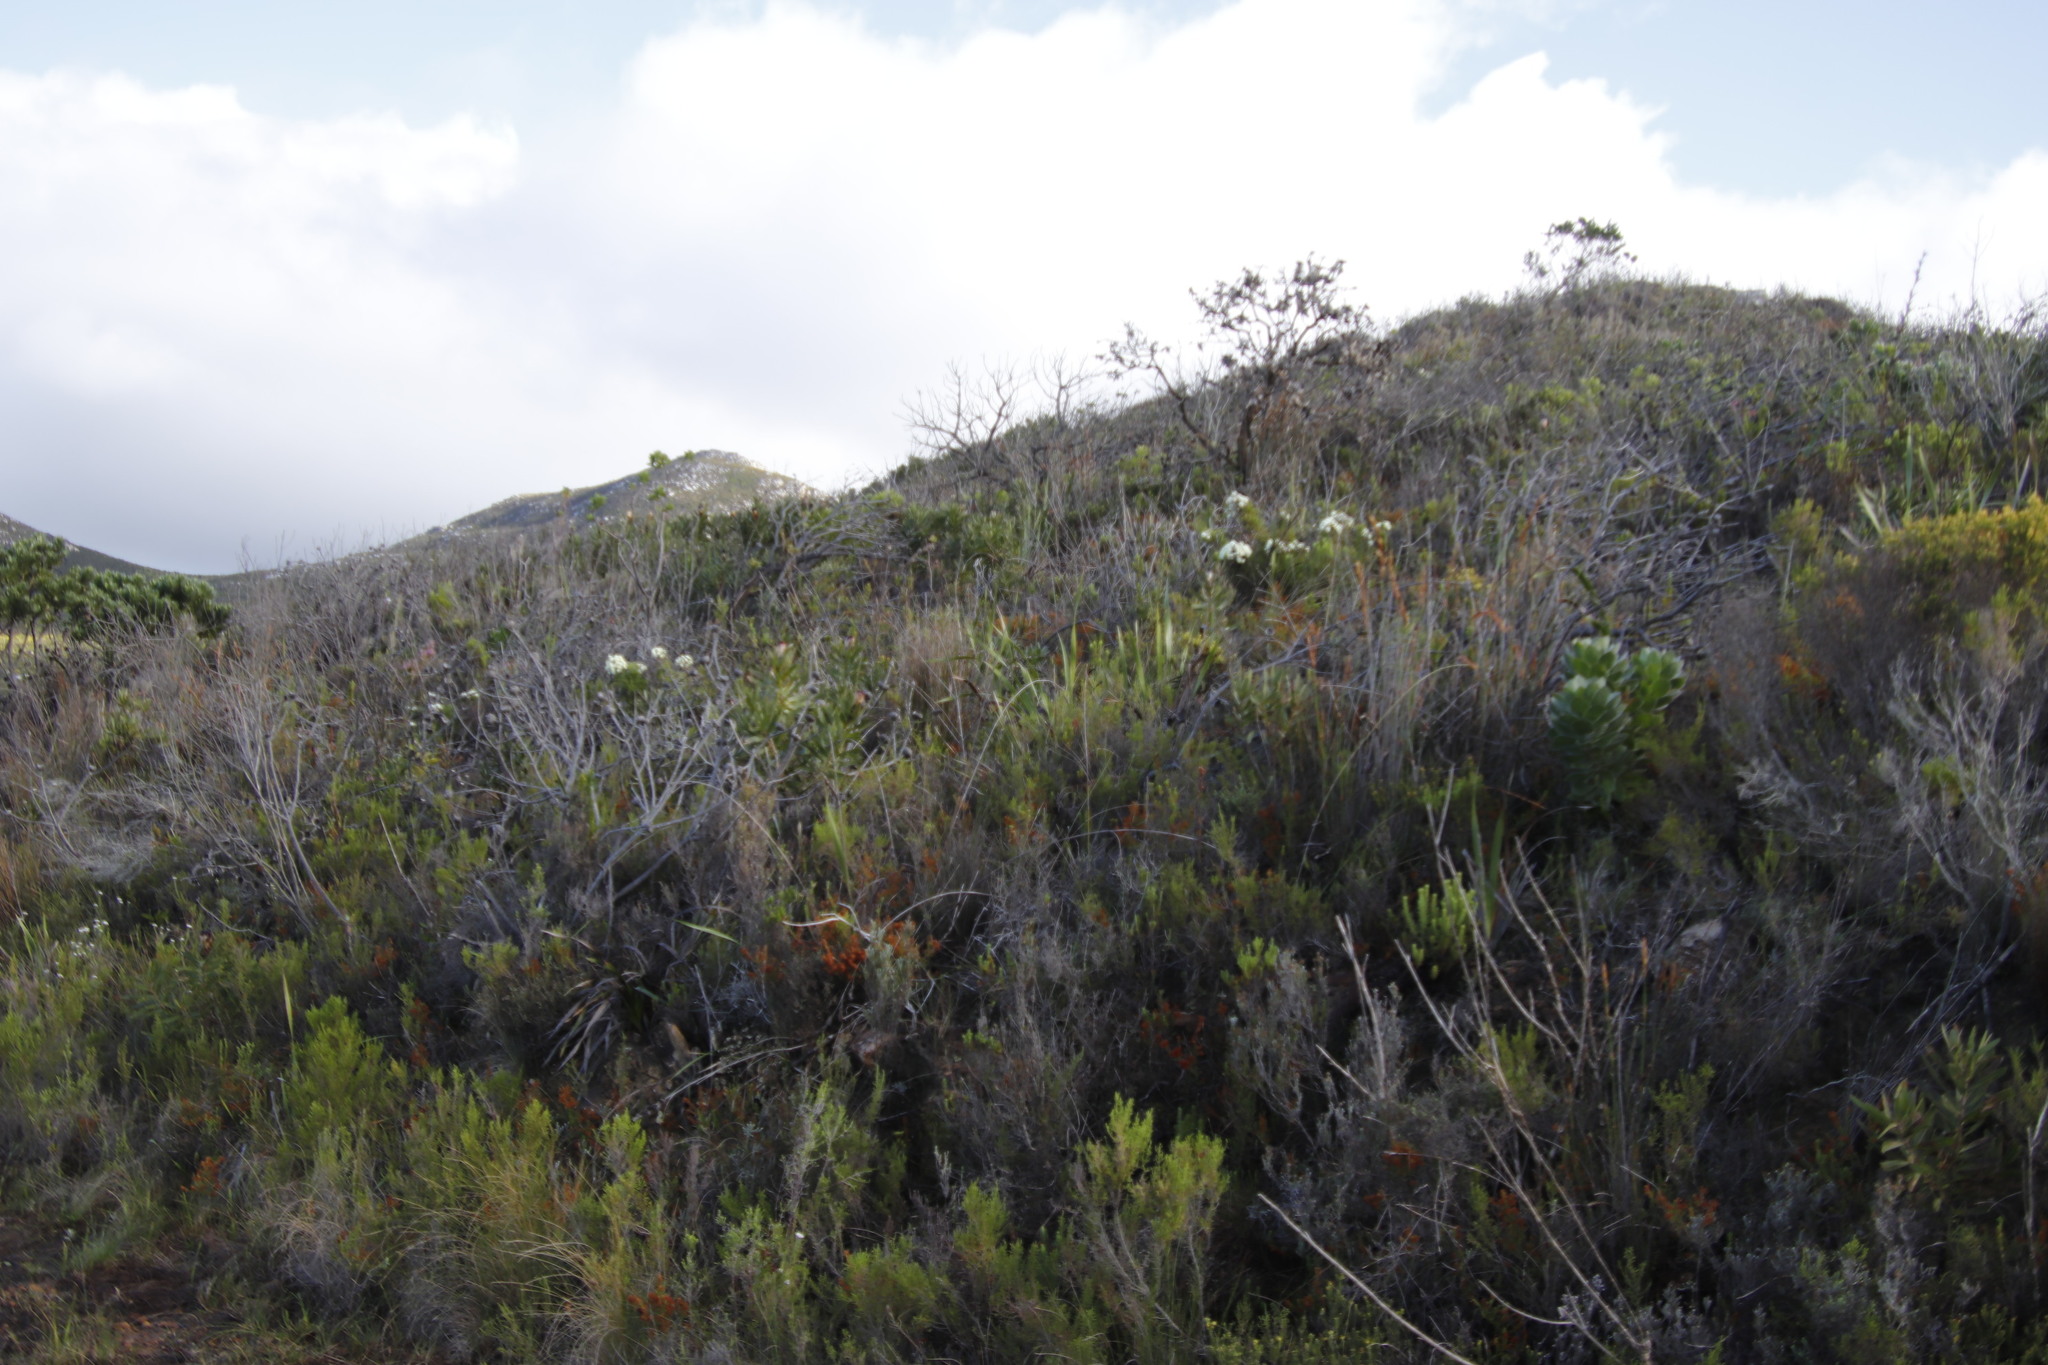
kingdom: Plantae
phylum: Tracheophyta
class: Magnoliopsida
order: Bruniales
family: Bruniaceae
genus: Brunia
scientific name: Brunia noduliflora
